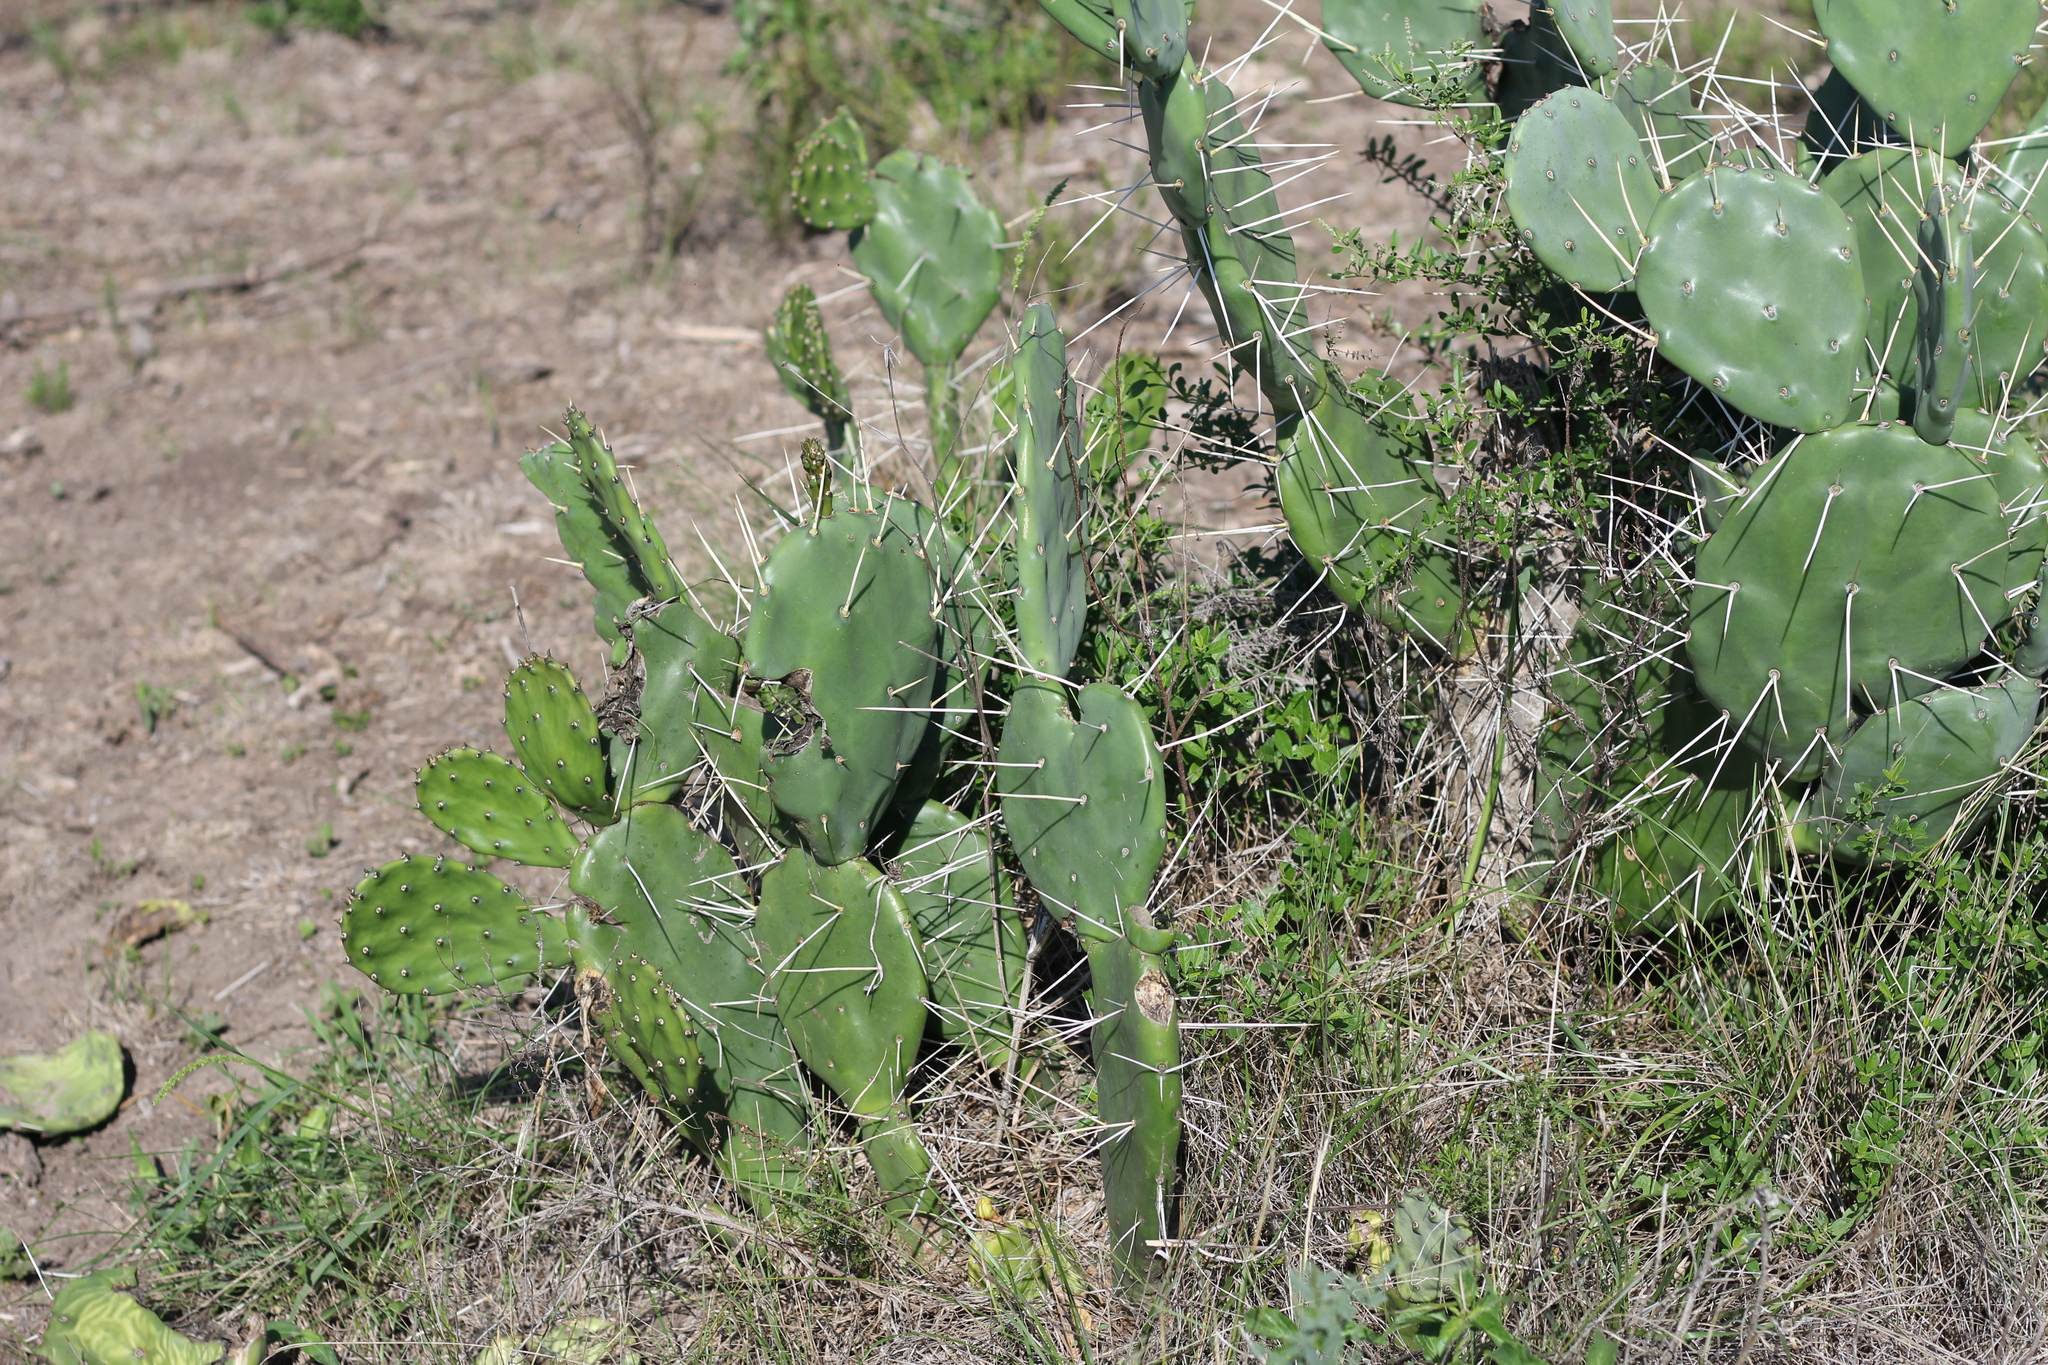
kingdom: Plantae
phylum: Tracheophyta
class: Magnoliopsida
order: Caryophyllales
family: Cactaceae
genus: Opuntia
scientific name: Opuntia megapotamica
